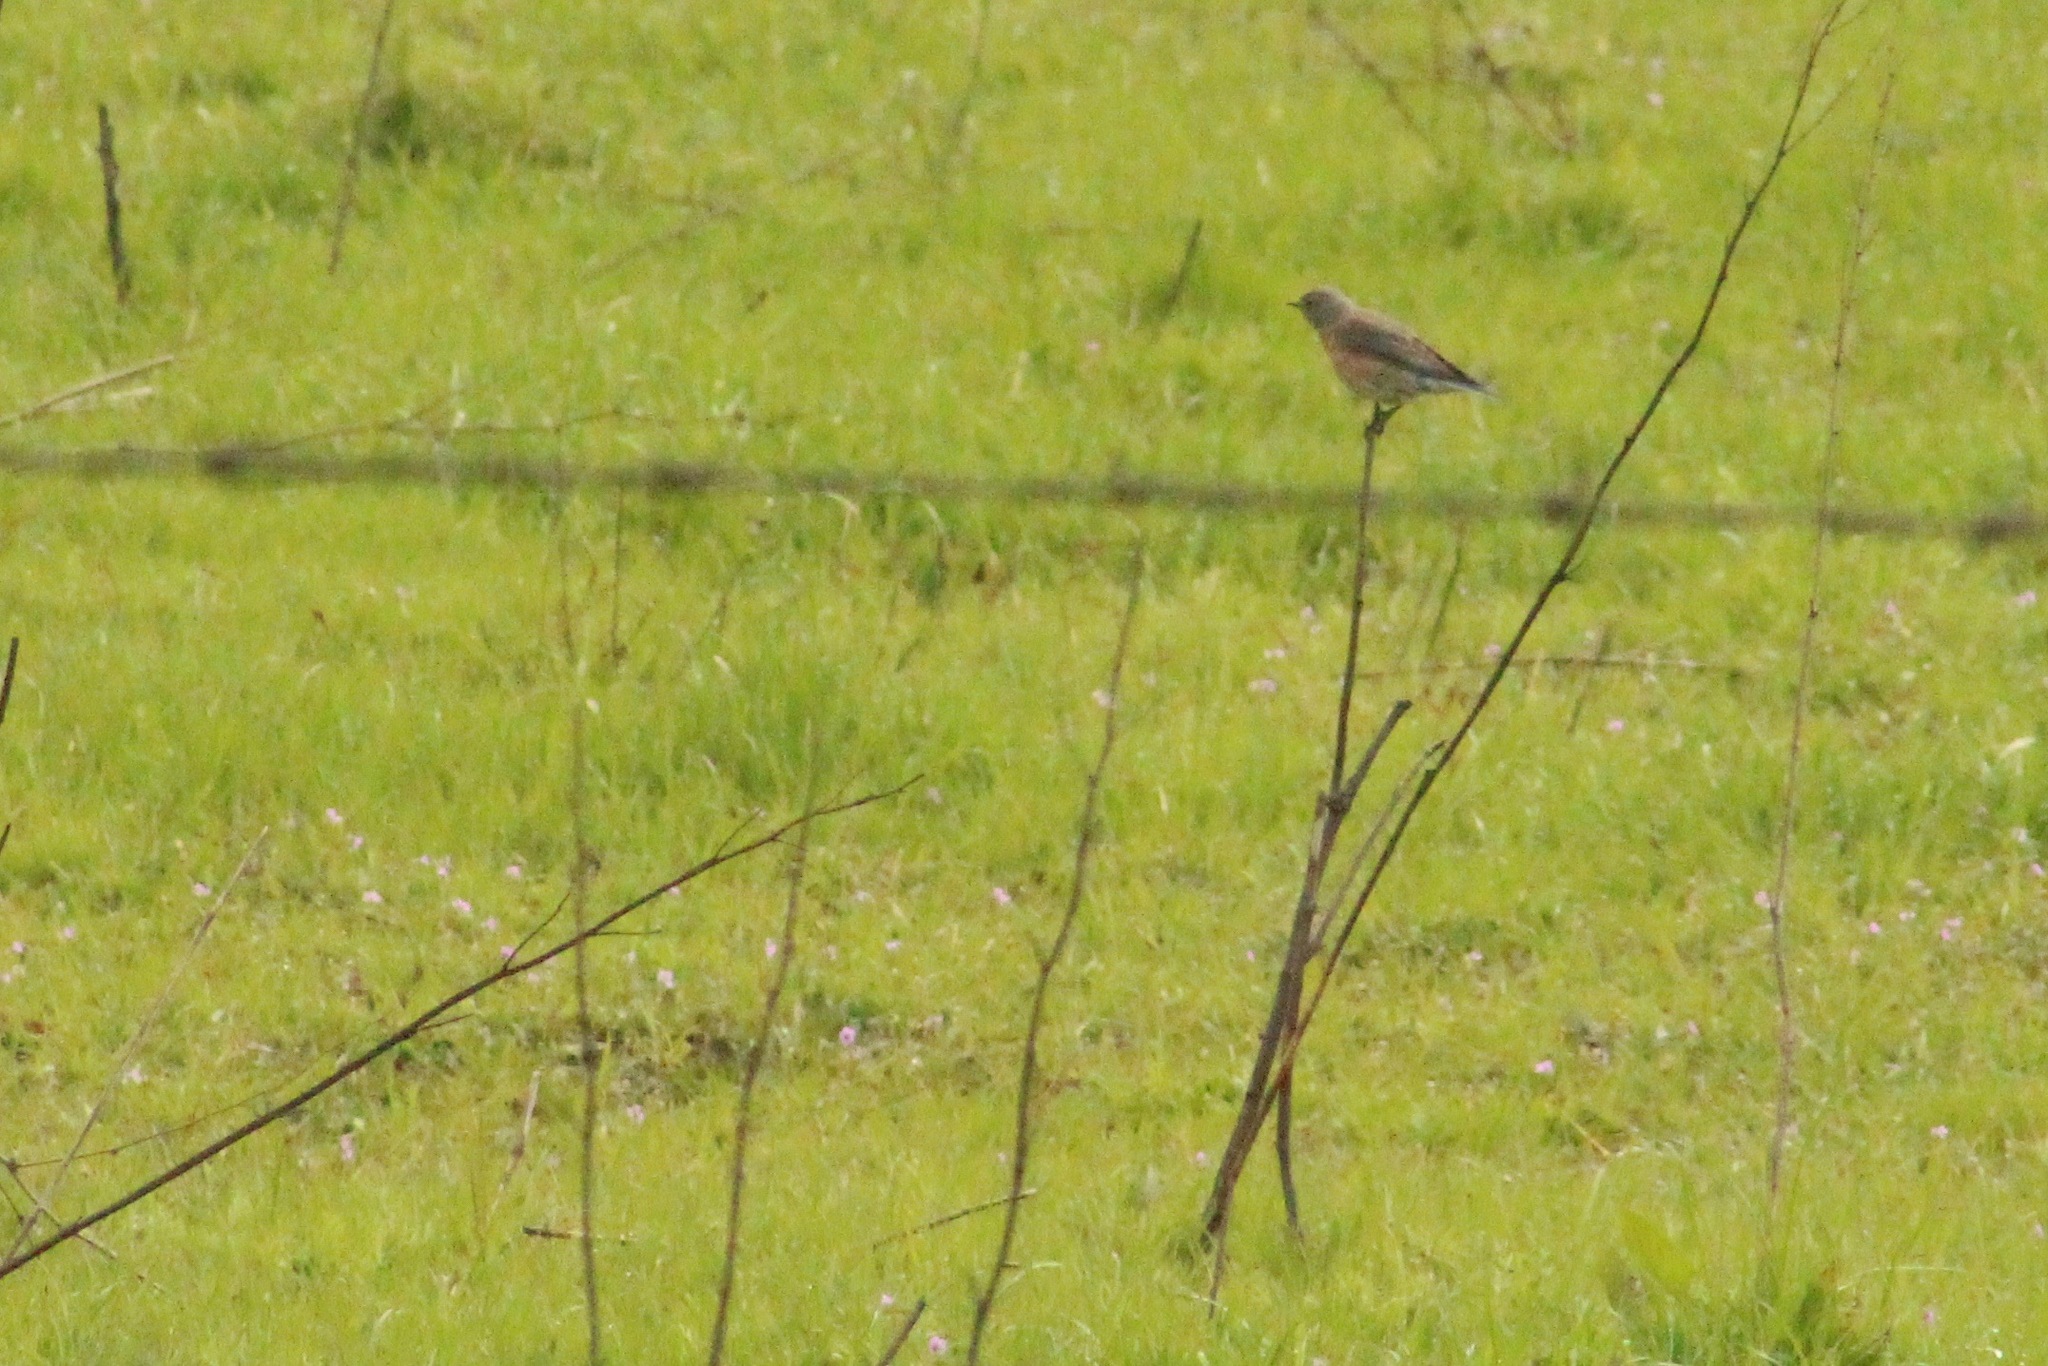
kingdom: Animalia
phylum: Chordata
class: Aves
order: Passeriformes
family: Turdidae
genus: Sialia
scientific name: Sialia mexicana
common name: Western bluebird
